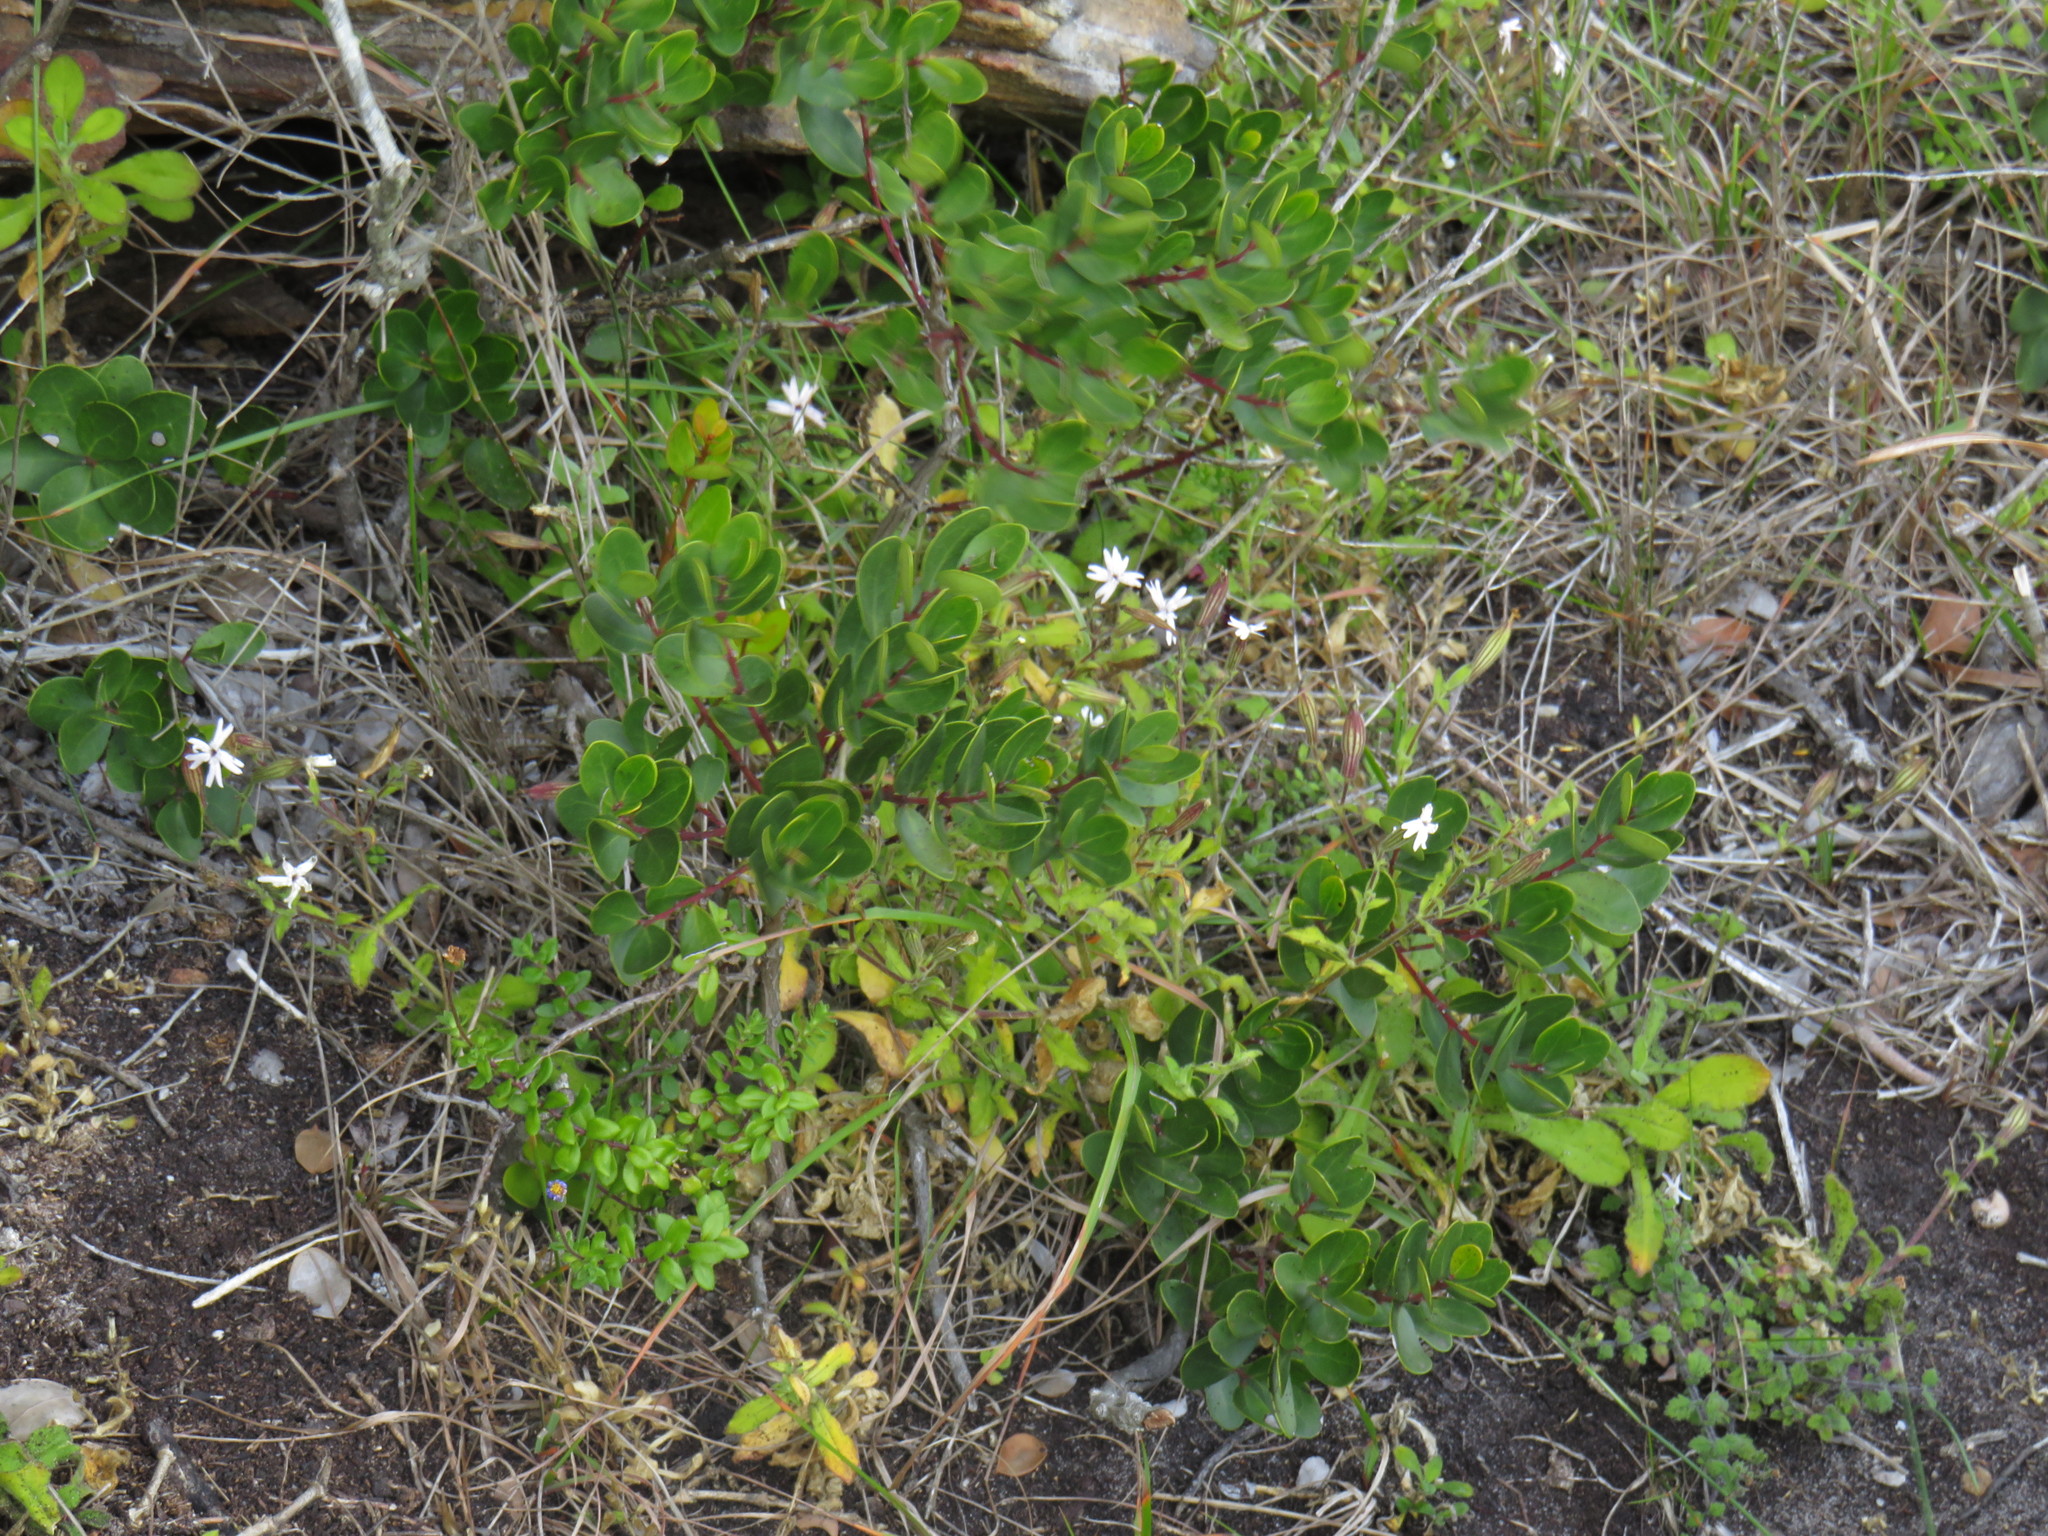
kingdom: Plantae
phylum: Tracheophyta
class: Magnoliopsida
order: Ericales
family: Ebenaceae
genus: Euclea
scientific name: Euclea racemosa
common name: Dune guarri
